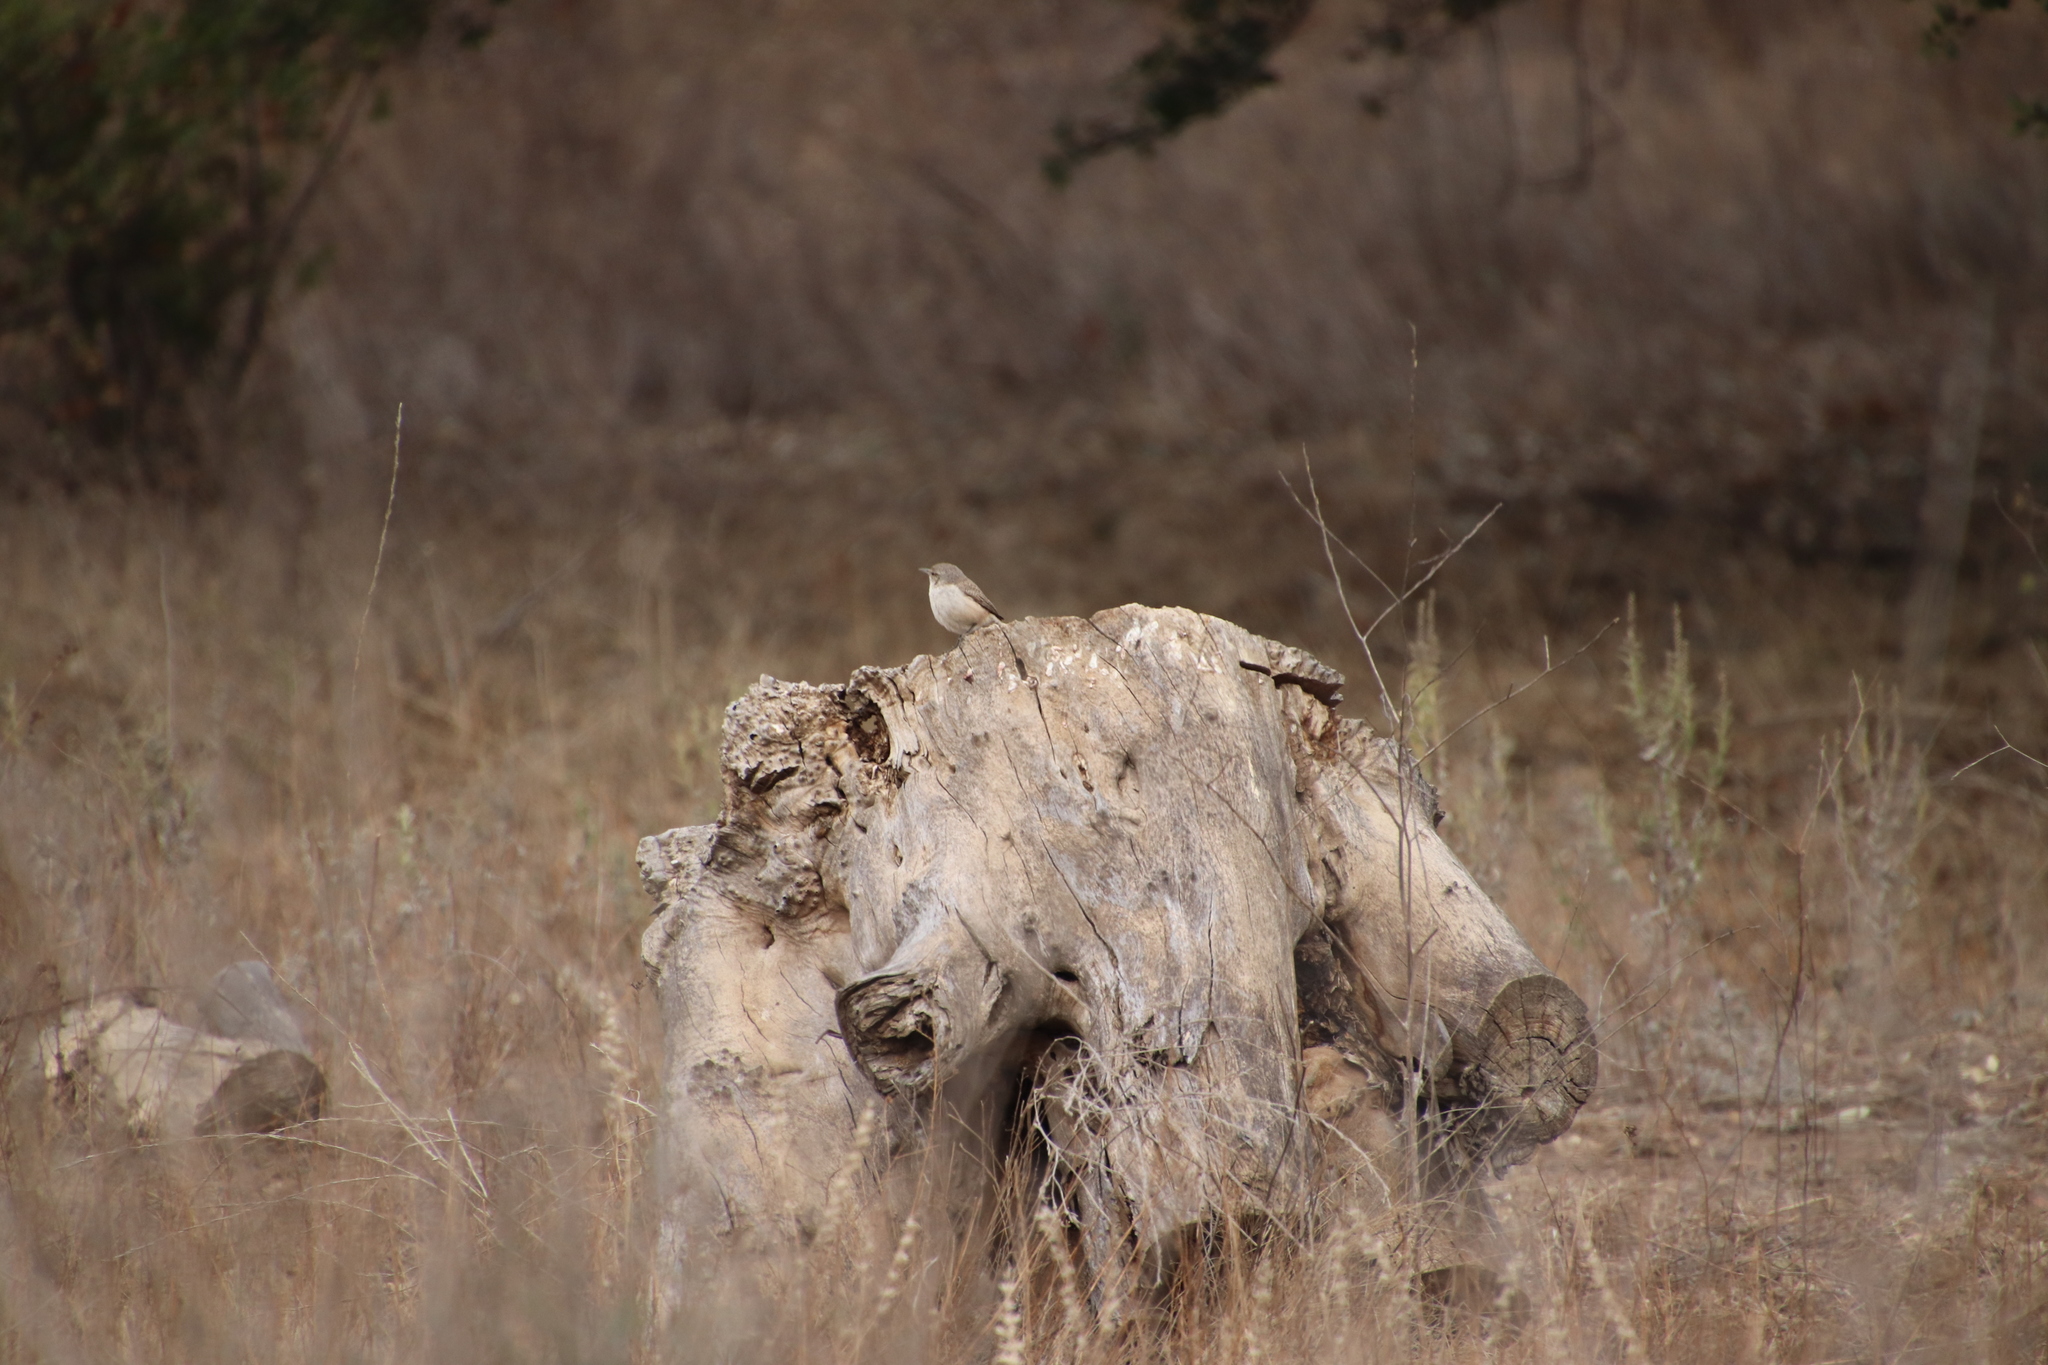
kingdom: Animalia
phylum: Chordata
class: Aves
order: Passeriformes
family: Troglodytidae
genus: Salpinctes
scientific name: Salpinctes obsoletus
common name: Rock wren
